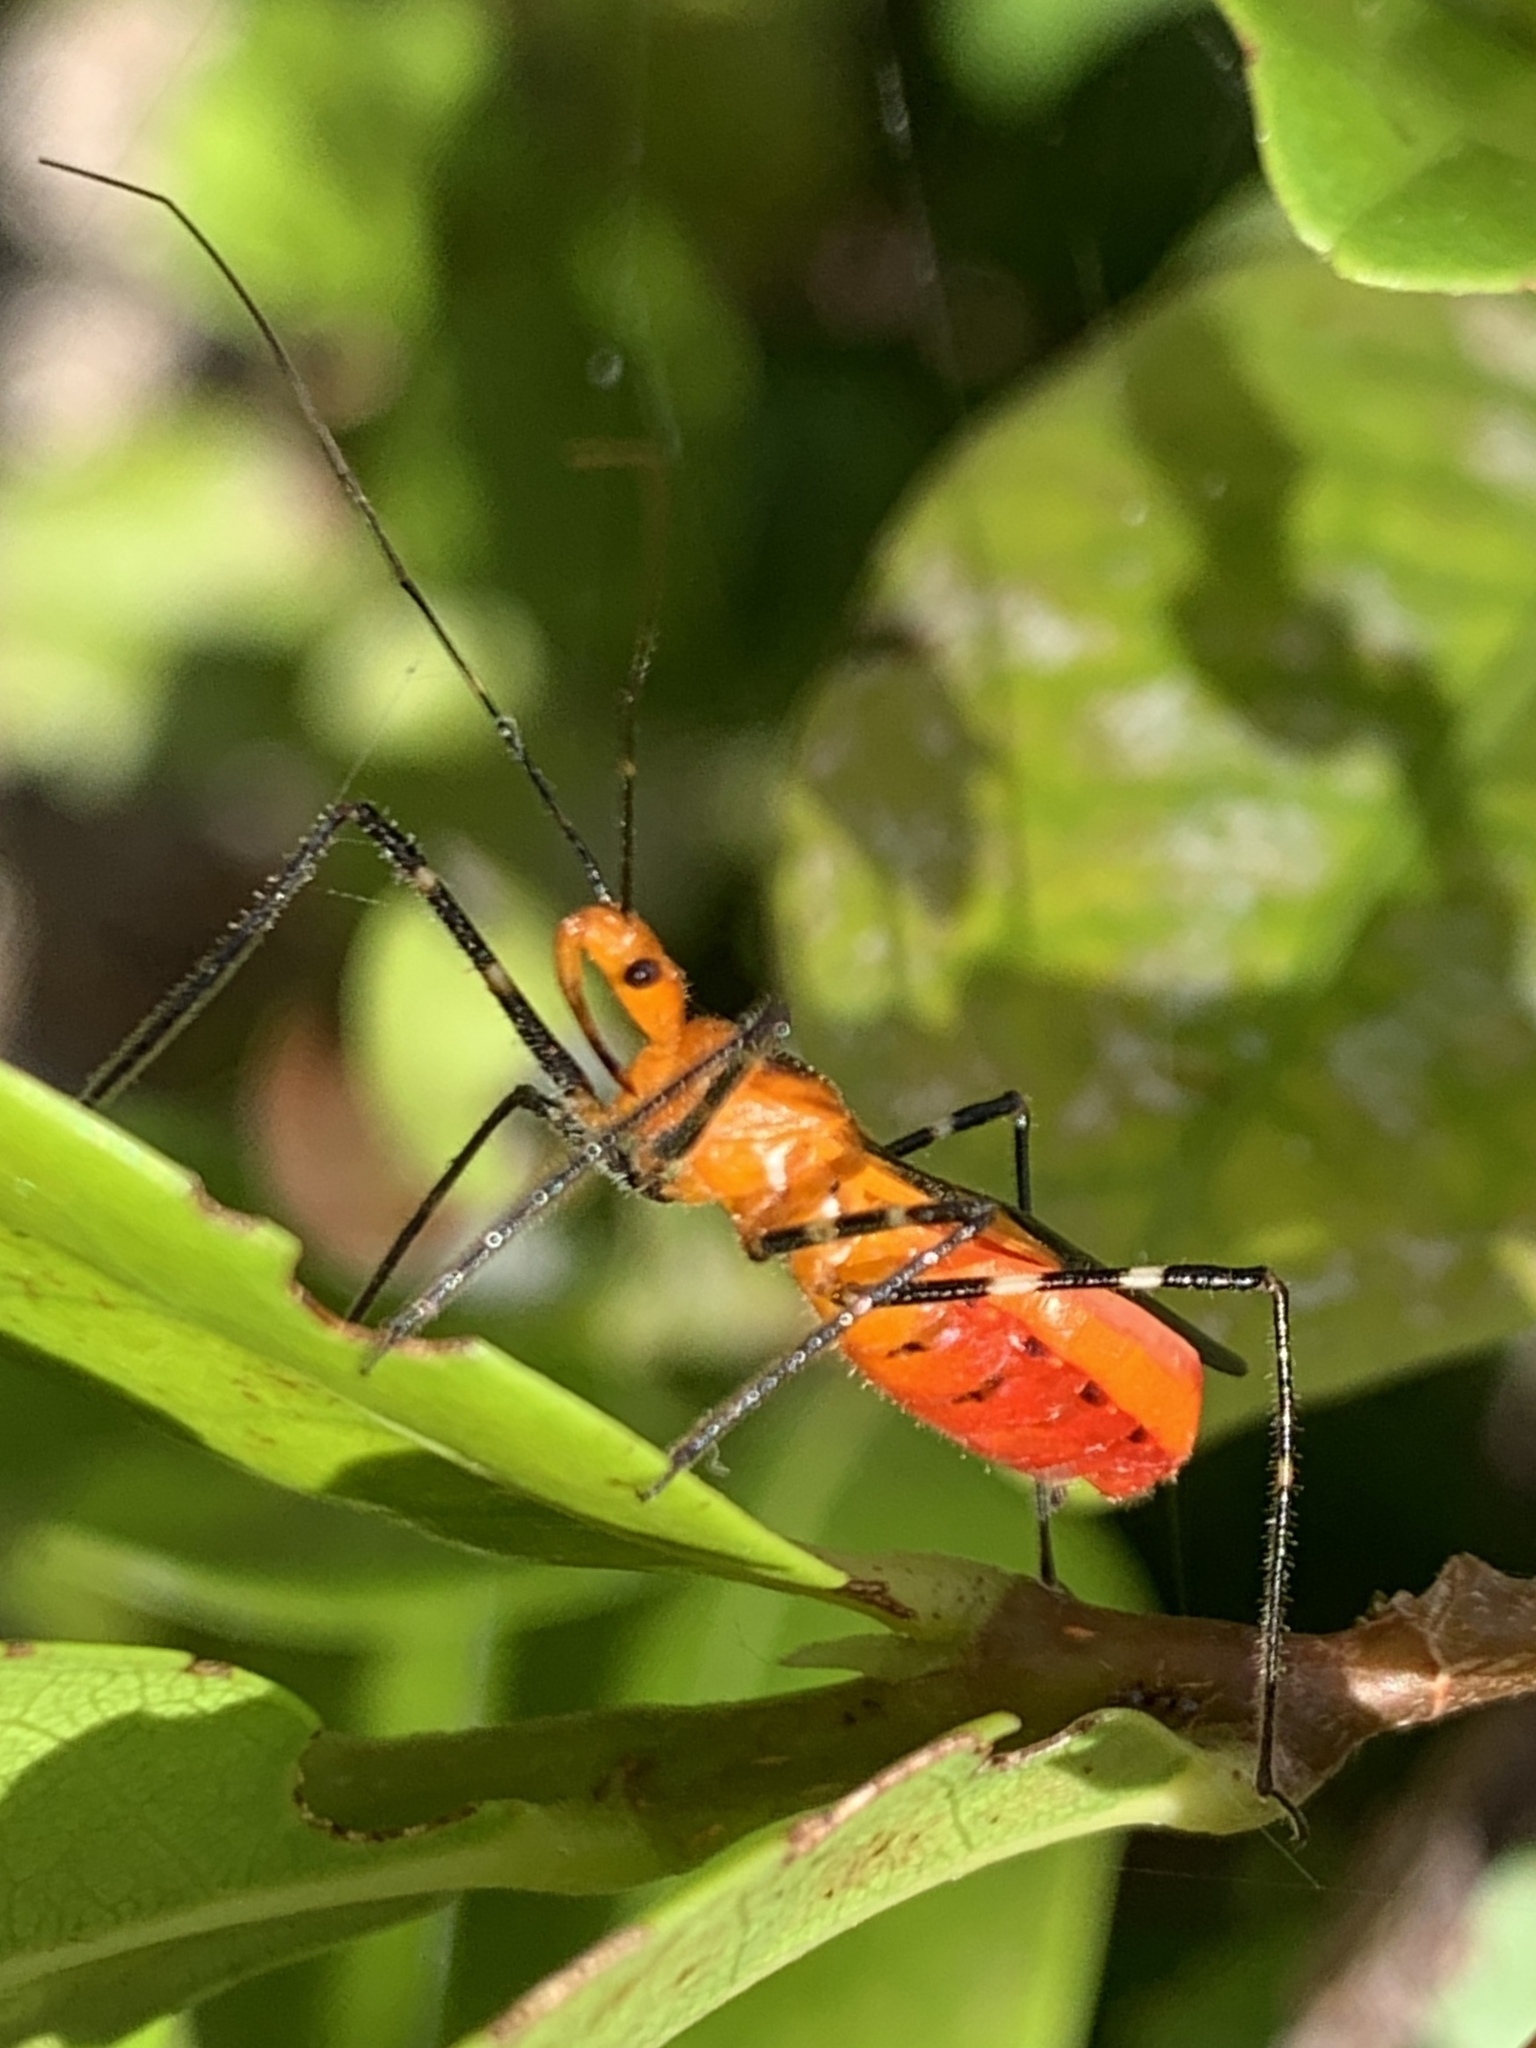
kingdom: Animalia
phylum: Arthropoda
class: Insecta
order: Hemiptera
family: Reduviidae
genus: Zelus
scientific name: Zelus longipes
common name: Milkweed assassin bug
